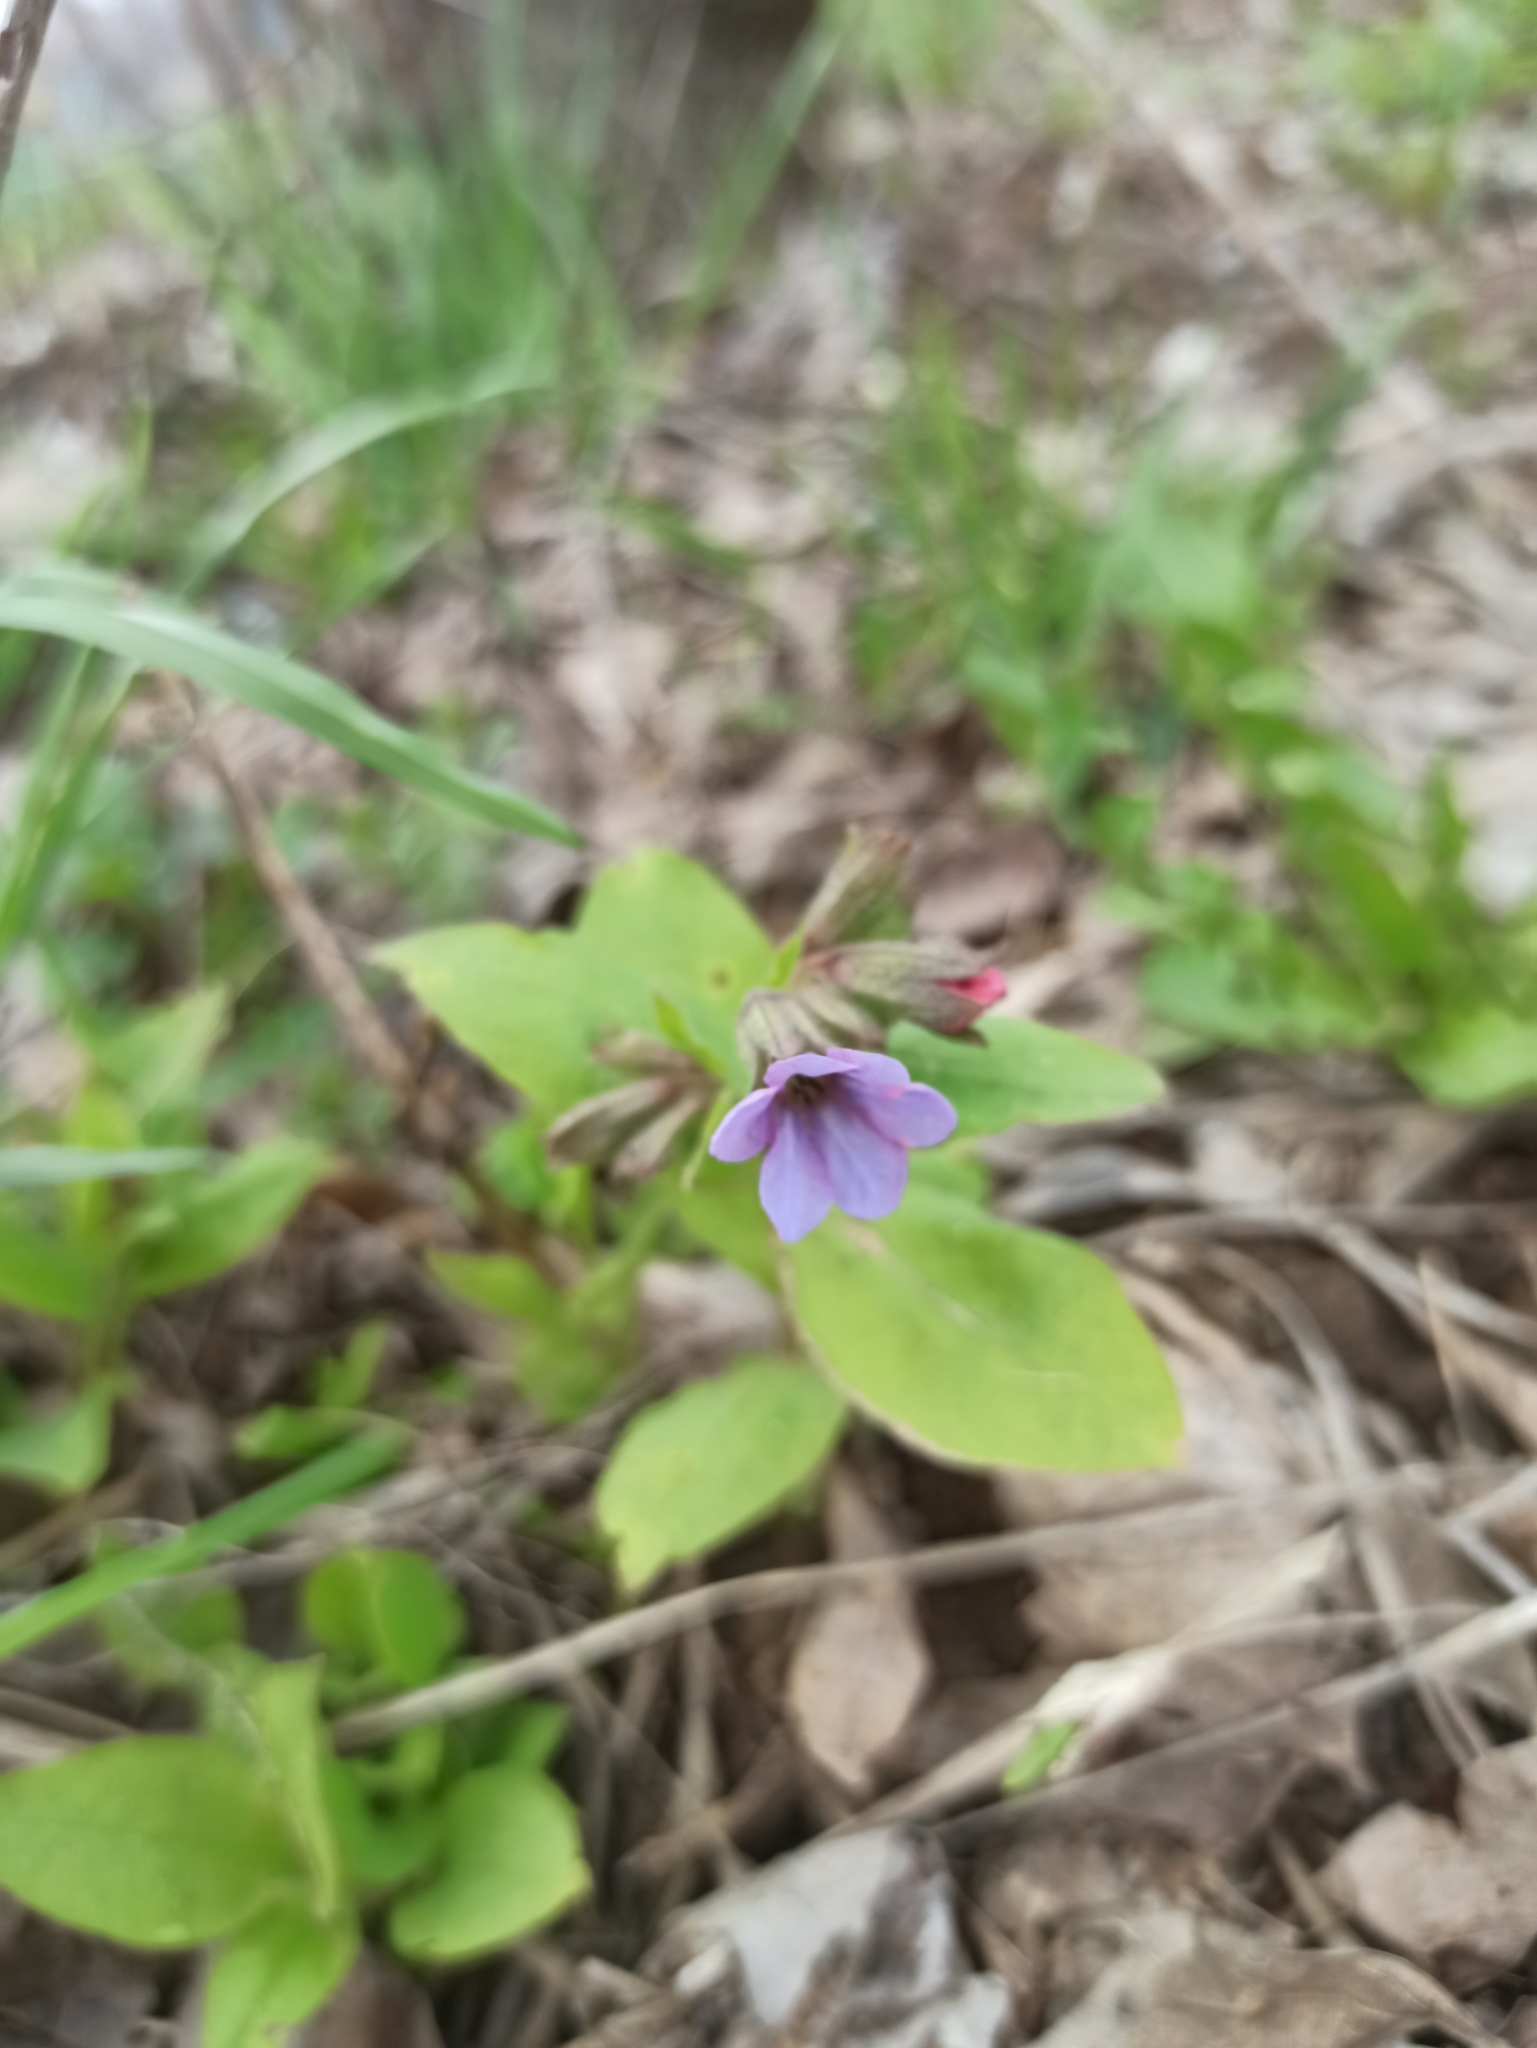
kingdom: Plantae
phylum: Tracheophyta
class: Magnoliopsida
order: Boraginales
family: Boraginaceae
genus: Pulmonaria
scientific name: Pulmonaria obscura
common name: Suffolk lungwort
